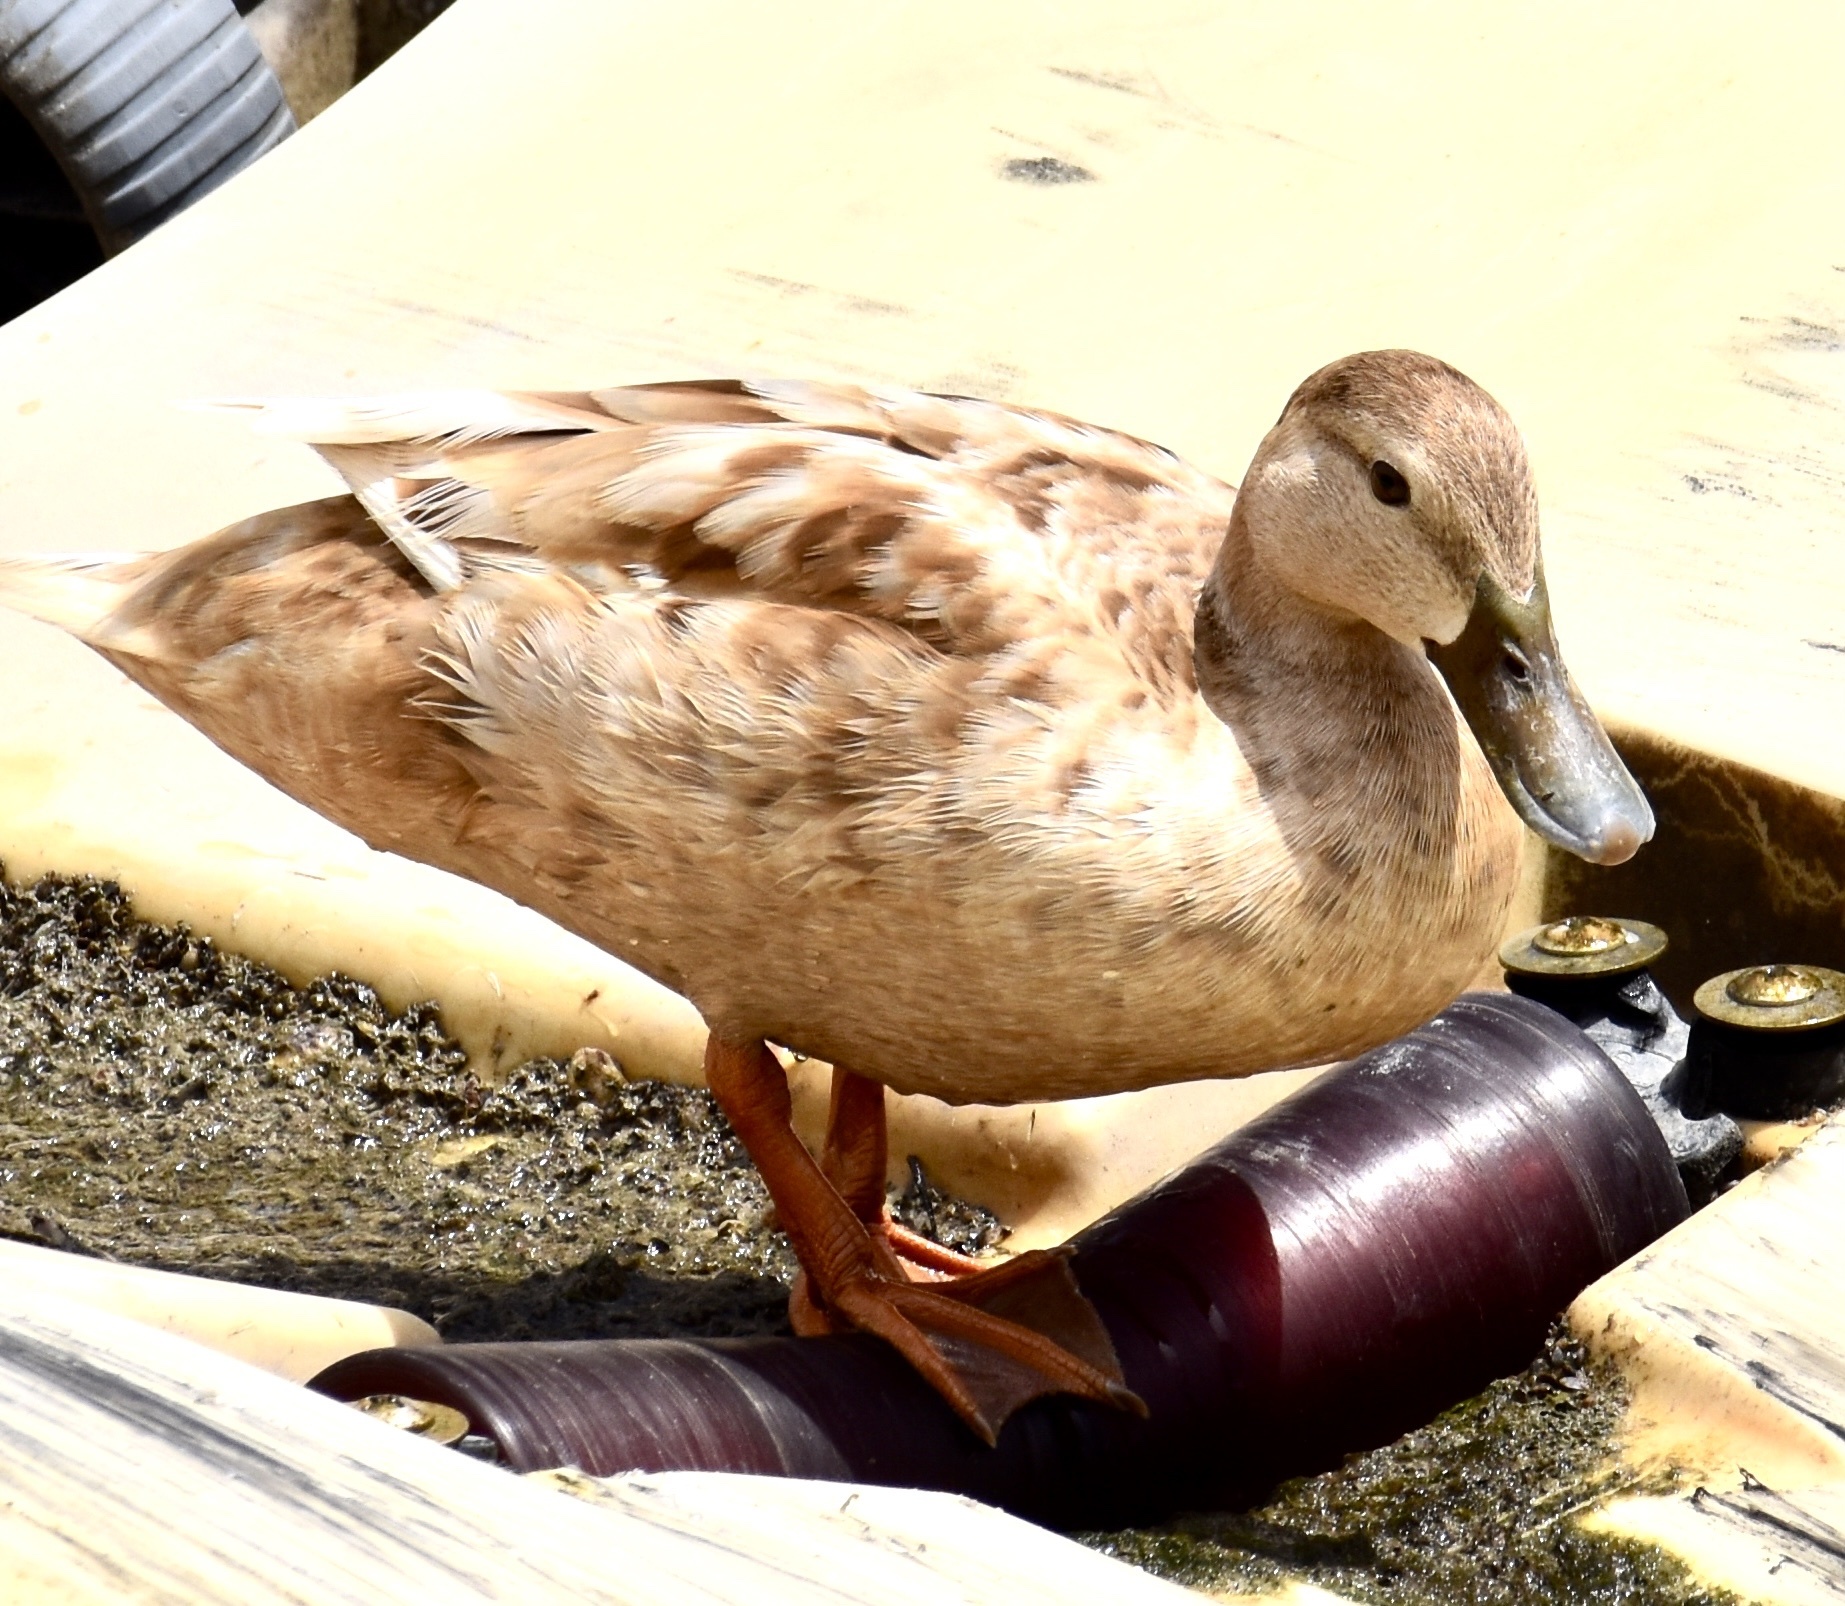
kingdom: Animalia
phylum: Chordata
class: Aves
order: Anseriformes
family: Anatidae
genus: Anas
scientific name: Anas platyrhynchos
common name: Mallard
